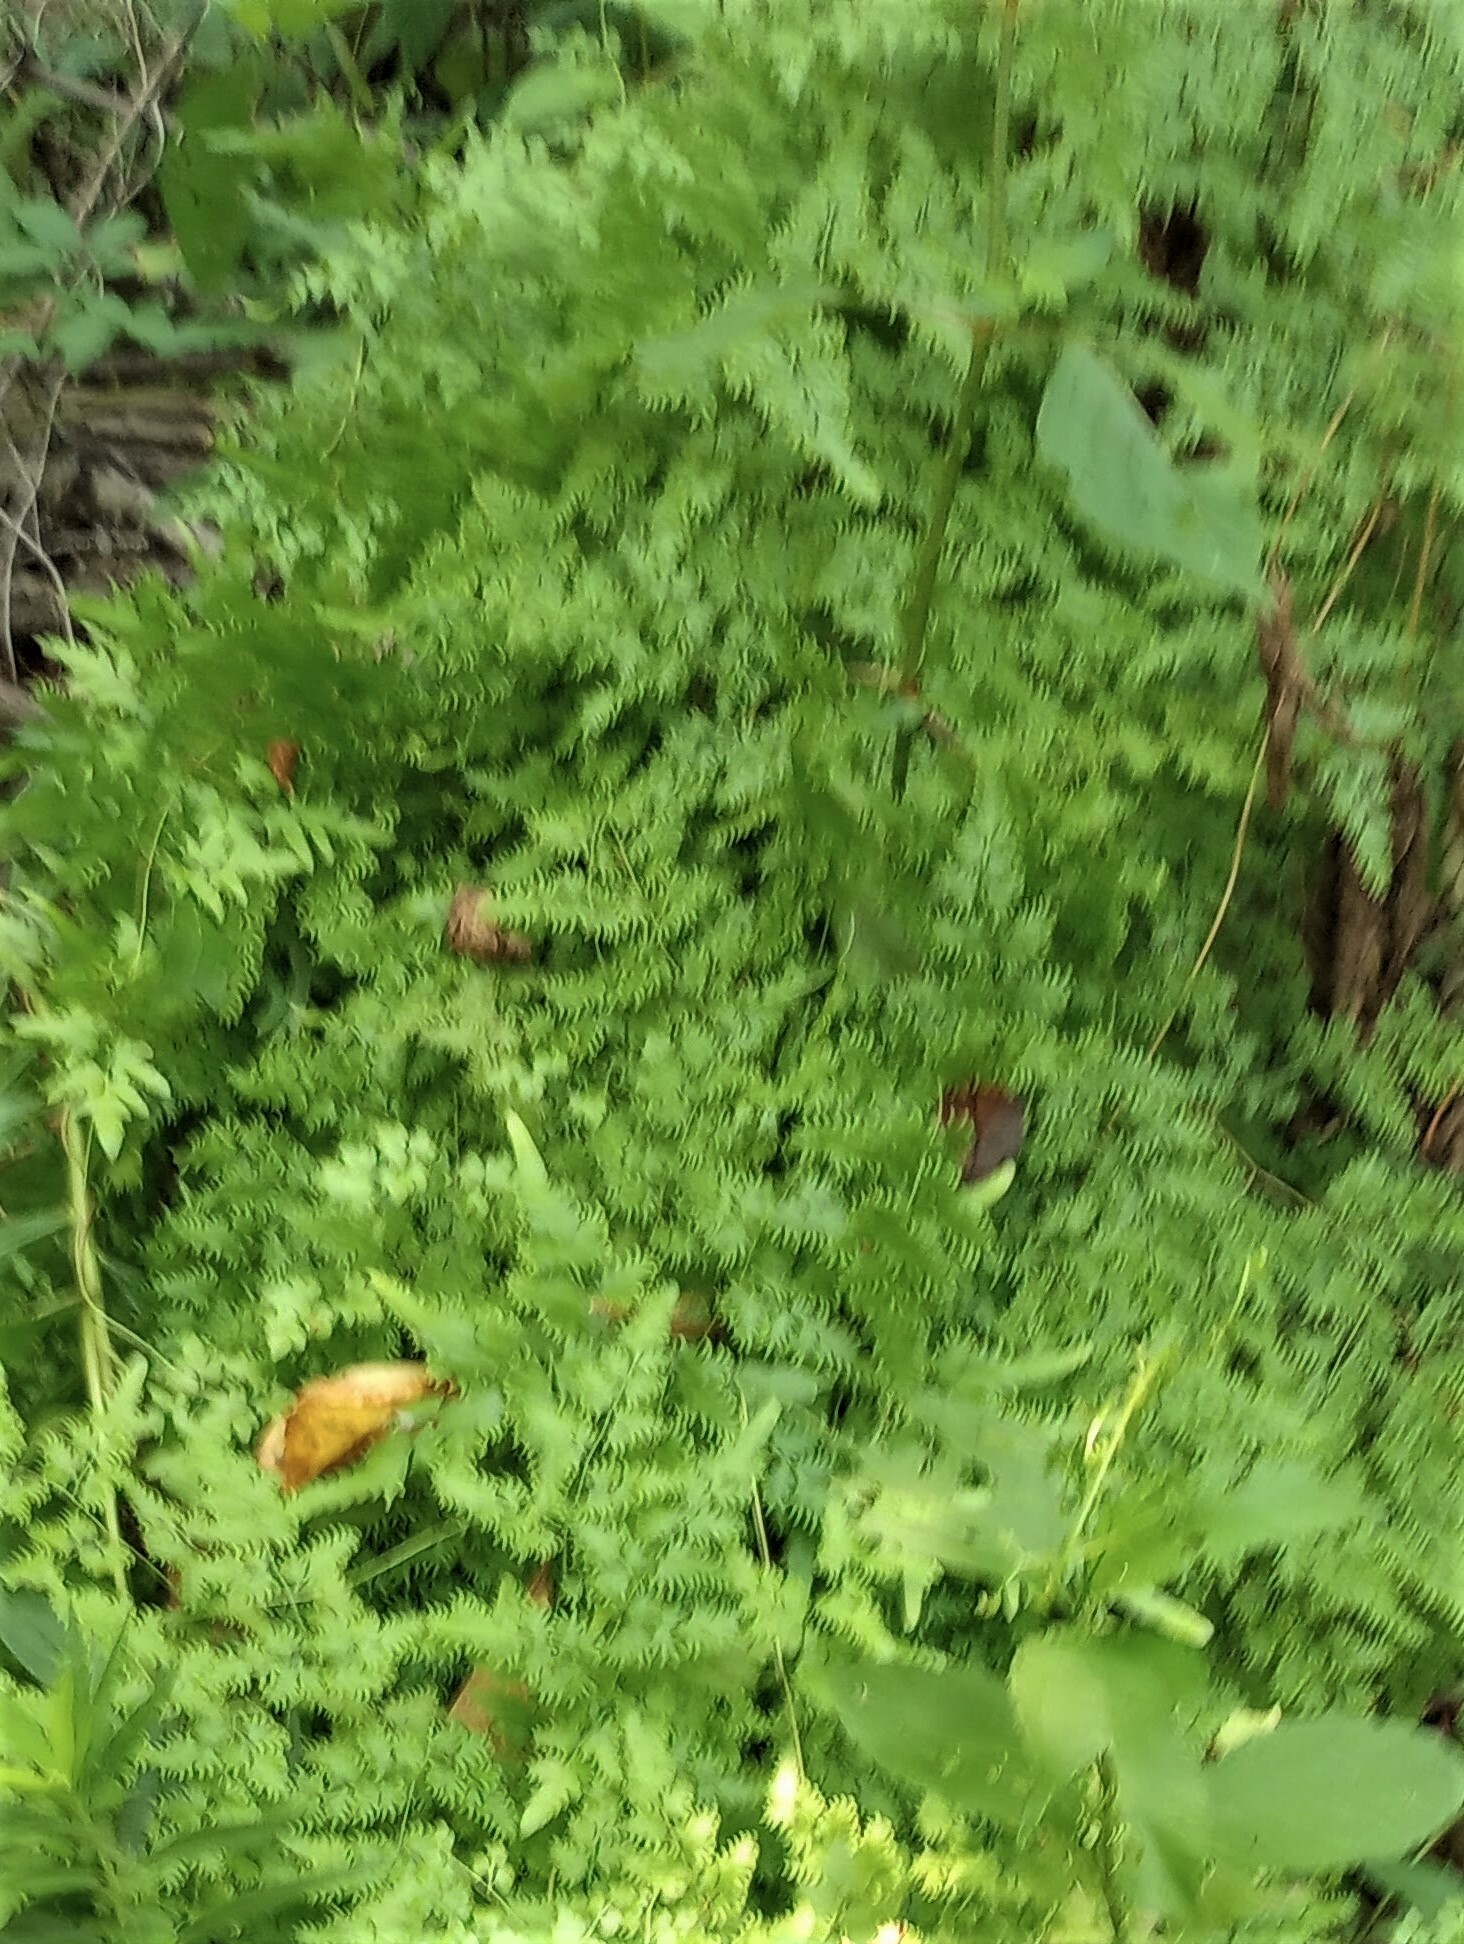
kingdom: Plantae
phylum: Tracheophyta
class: Polypodiopsida
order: Schizaeales
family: Lygodiaceae
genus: Lygodium
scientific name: Lygodium japonicum
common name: Japanese climbing fern
